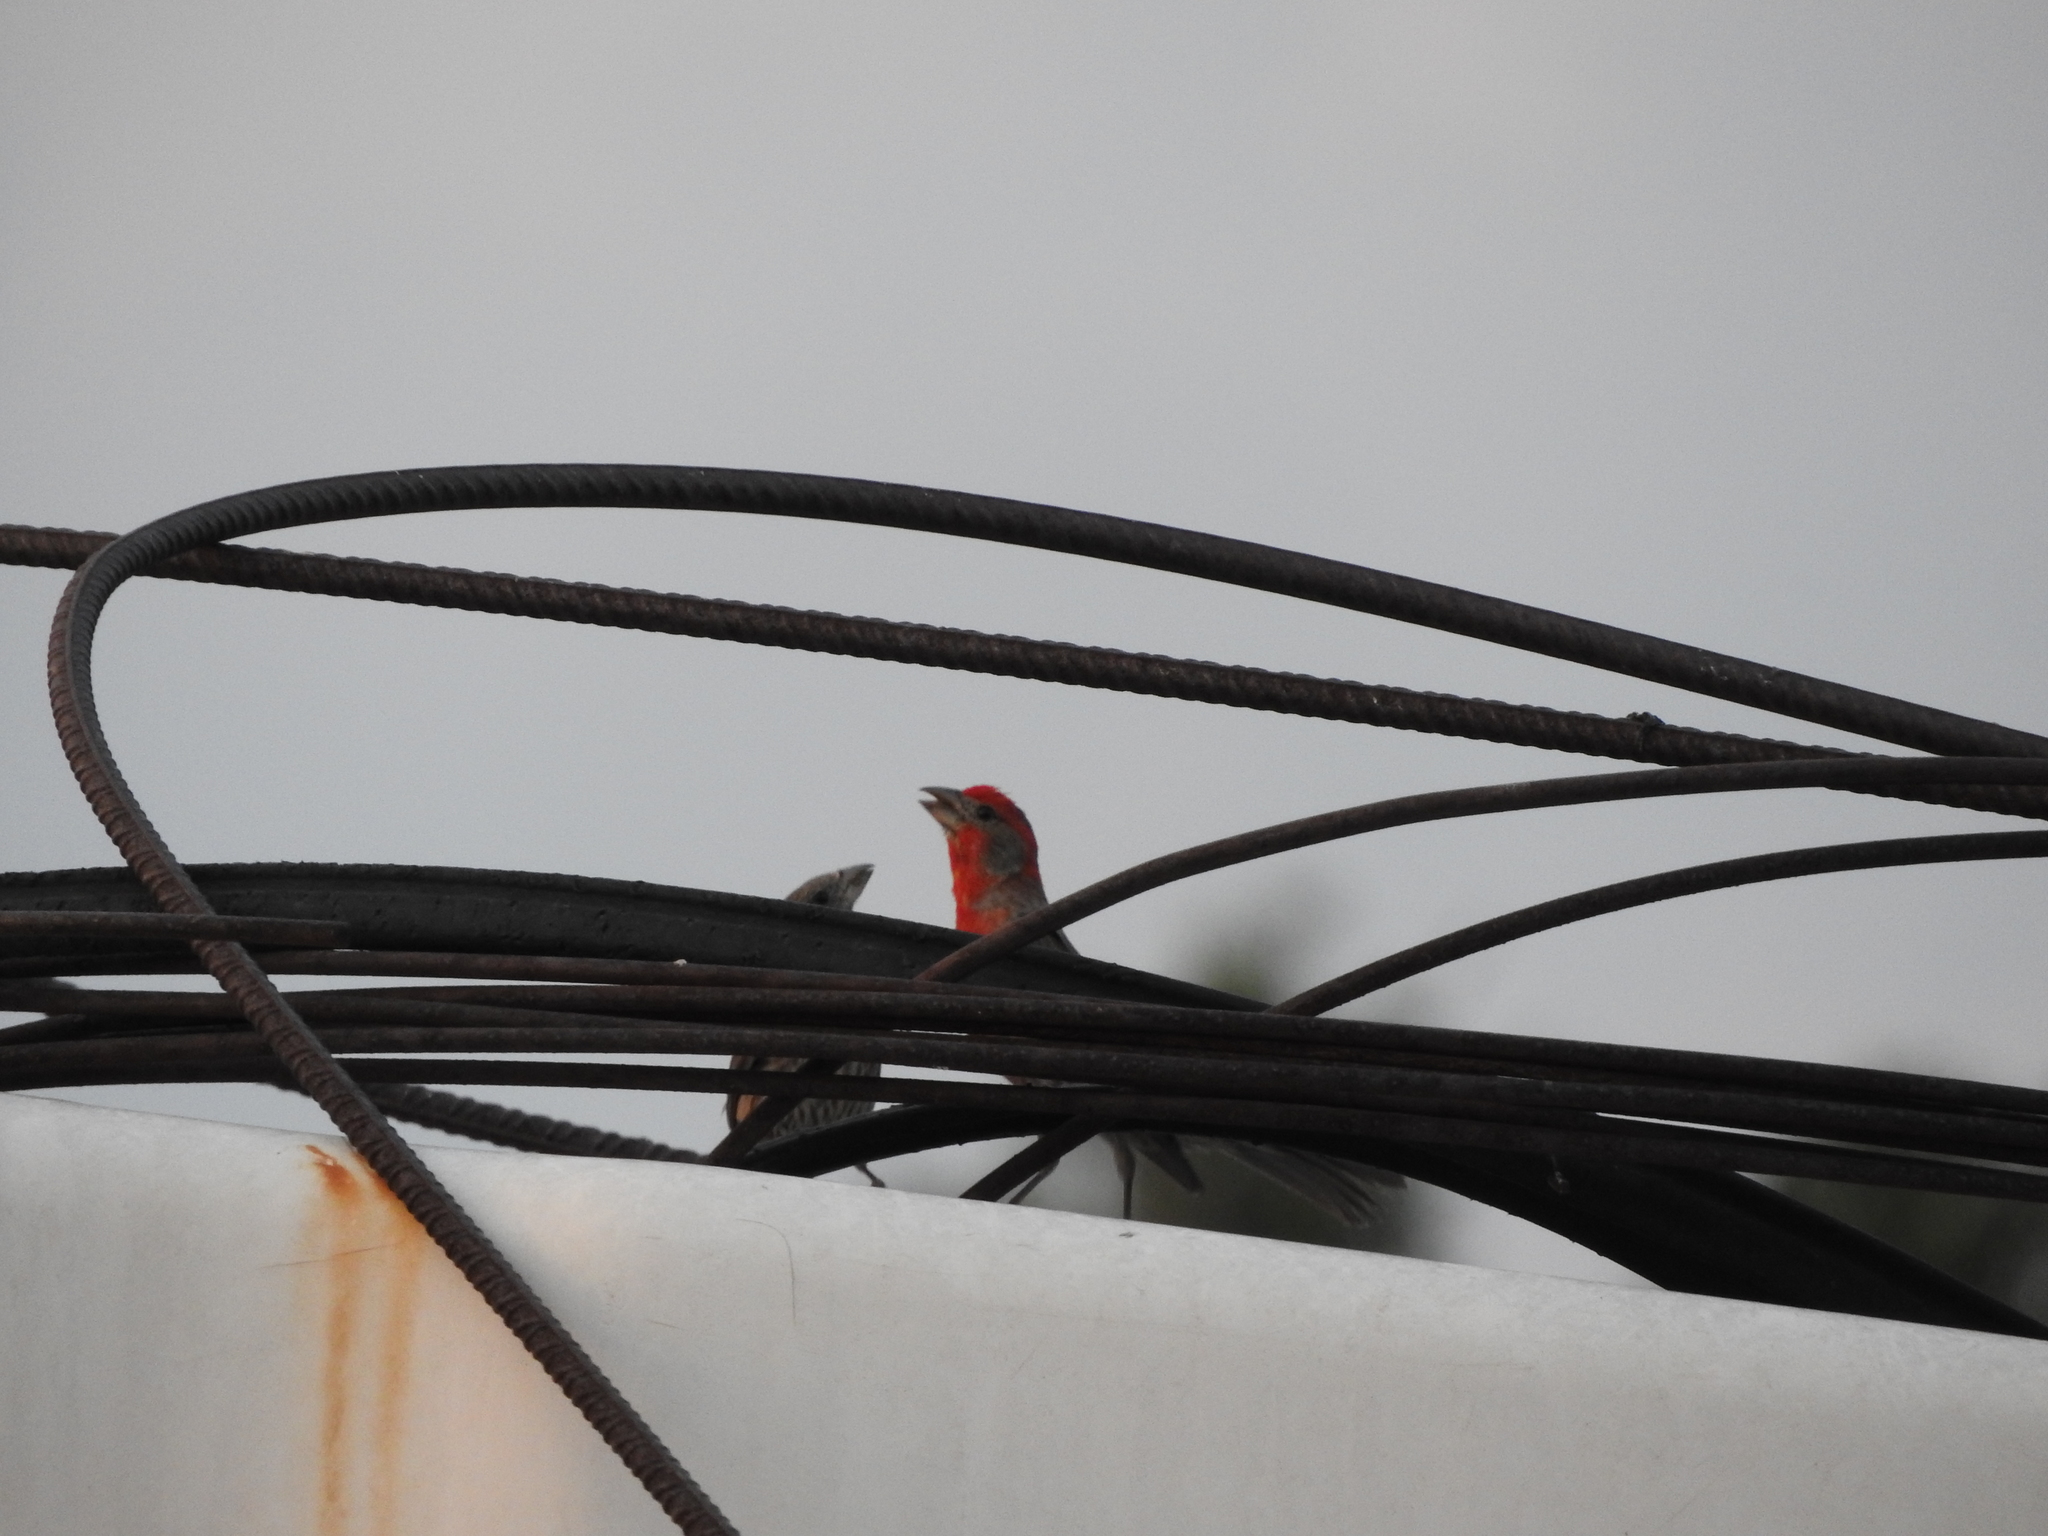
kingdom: Animalia
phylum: Chordata
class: Aves
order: Passeriformes
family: Fringillidae
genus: Haemorhous
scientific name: Haemorhous mexicanus
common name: House finch
